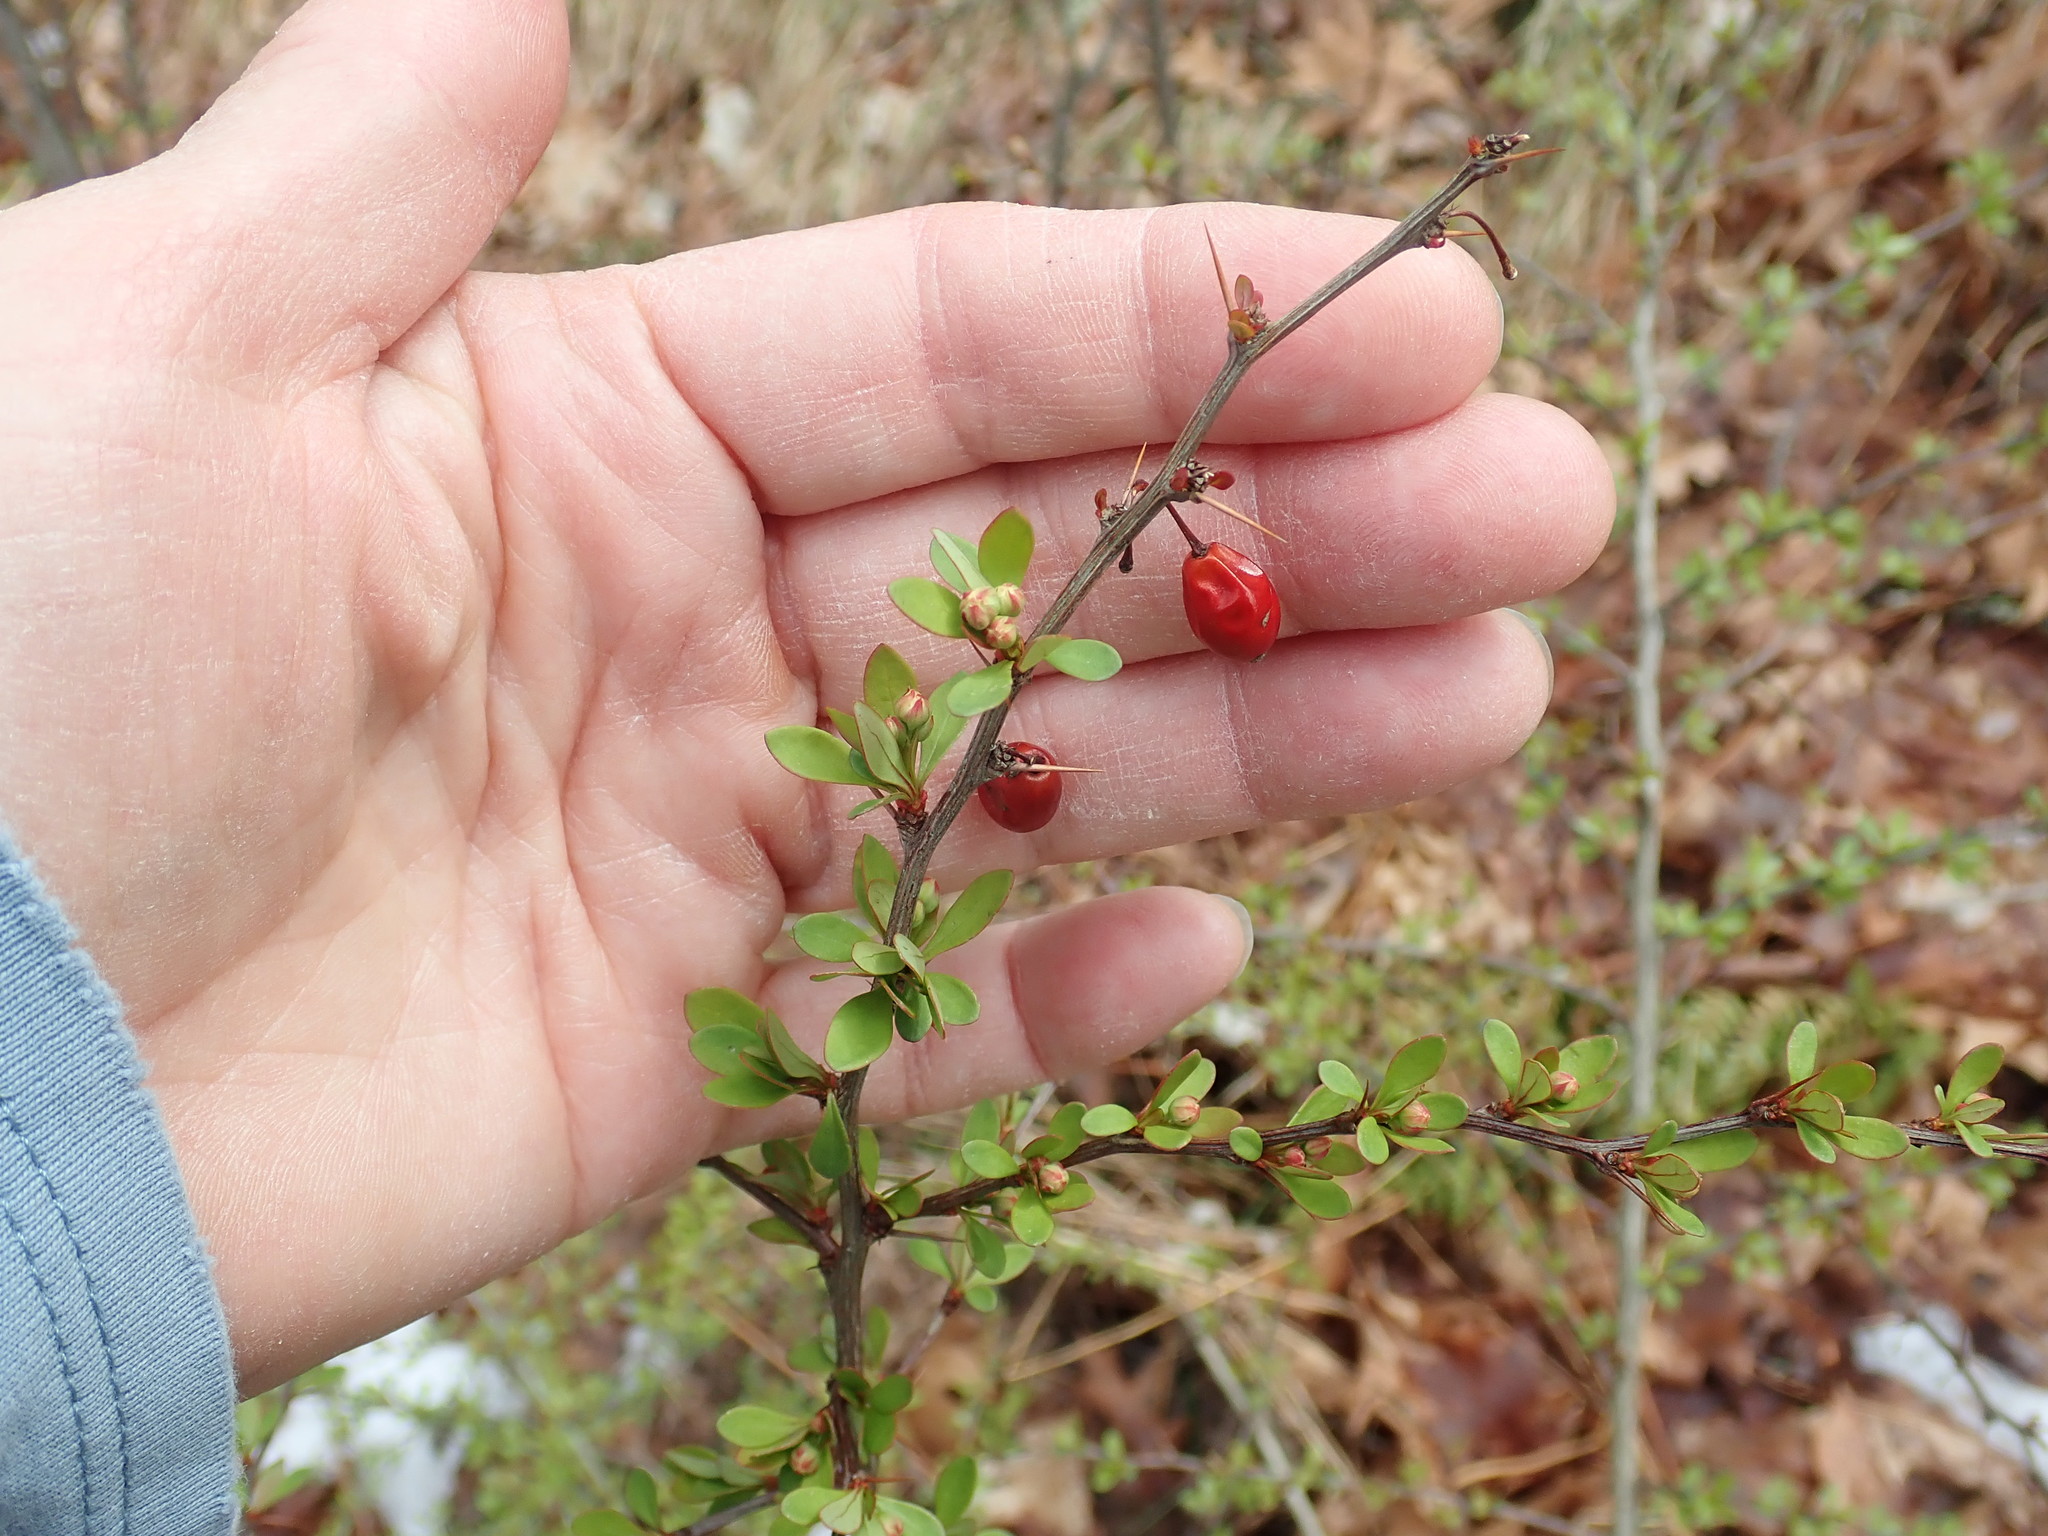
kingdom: Plantae
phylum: Tracheophyta
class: Magnoliopsida
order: Ranunculales
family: Berberidaceae
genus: Berberis
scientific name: Berberis thunbergii
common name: Japanese barberry
